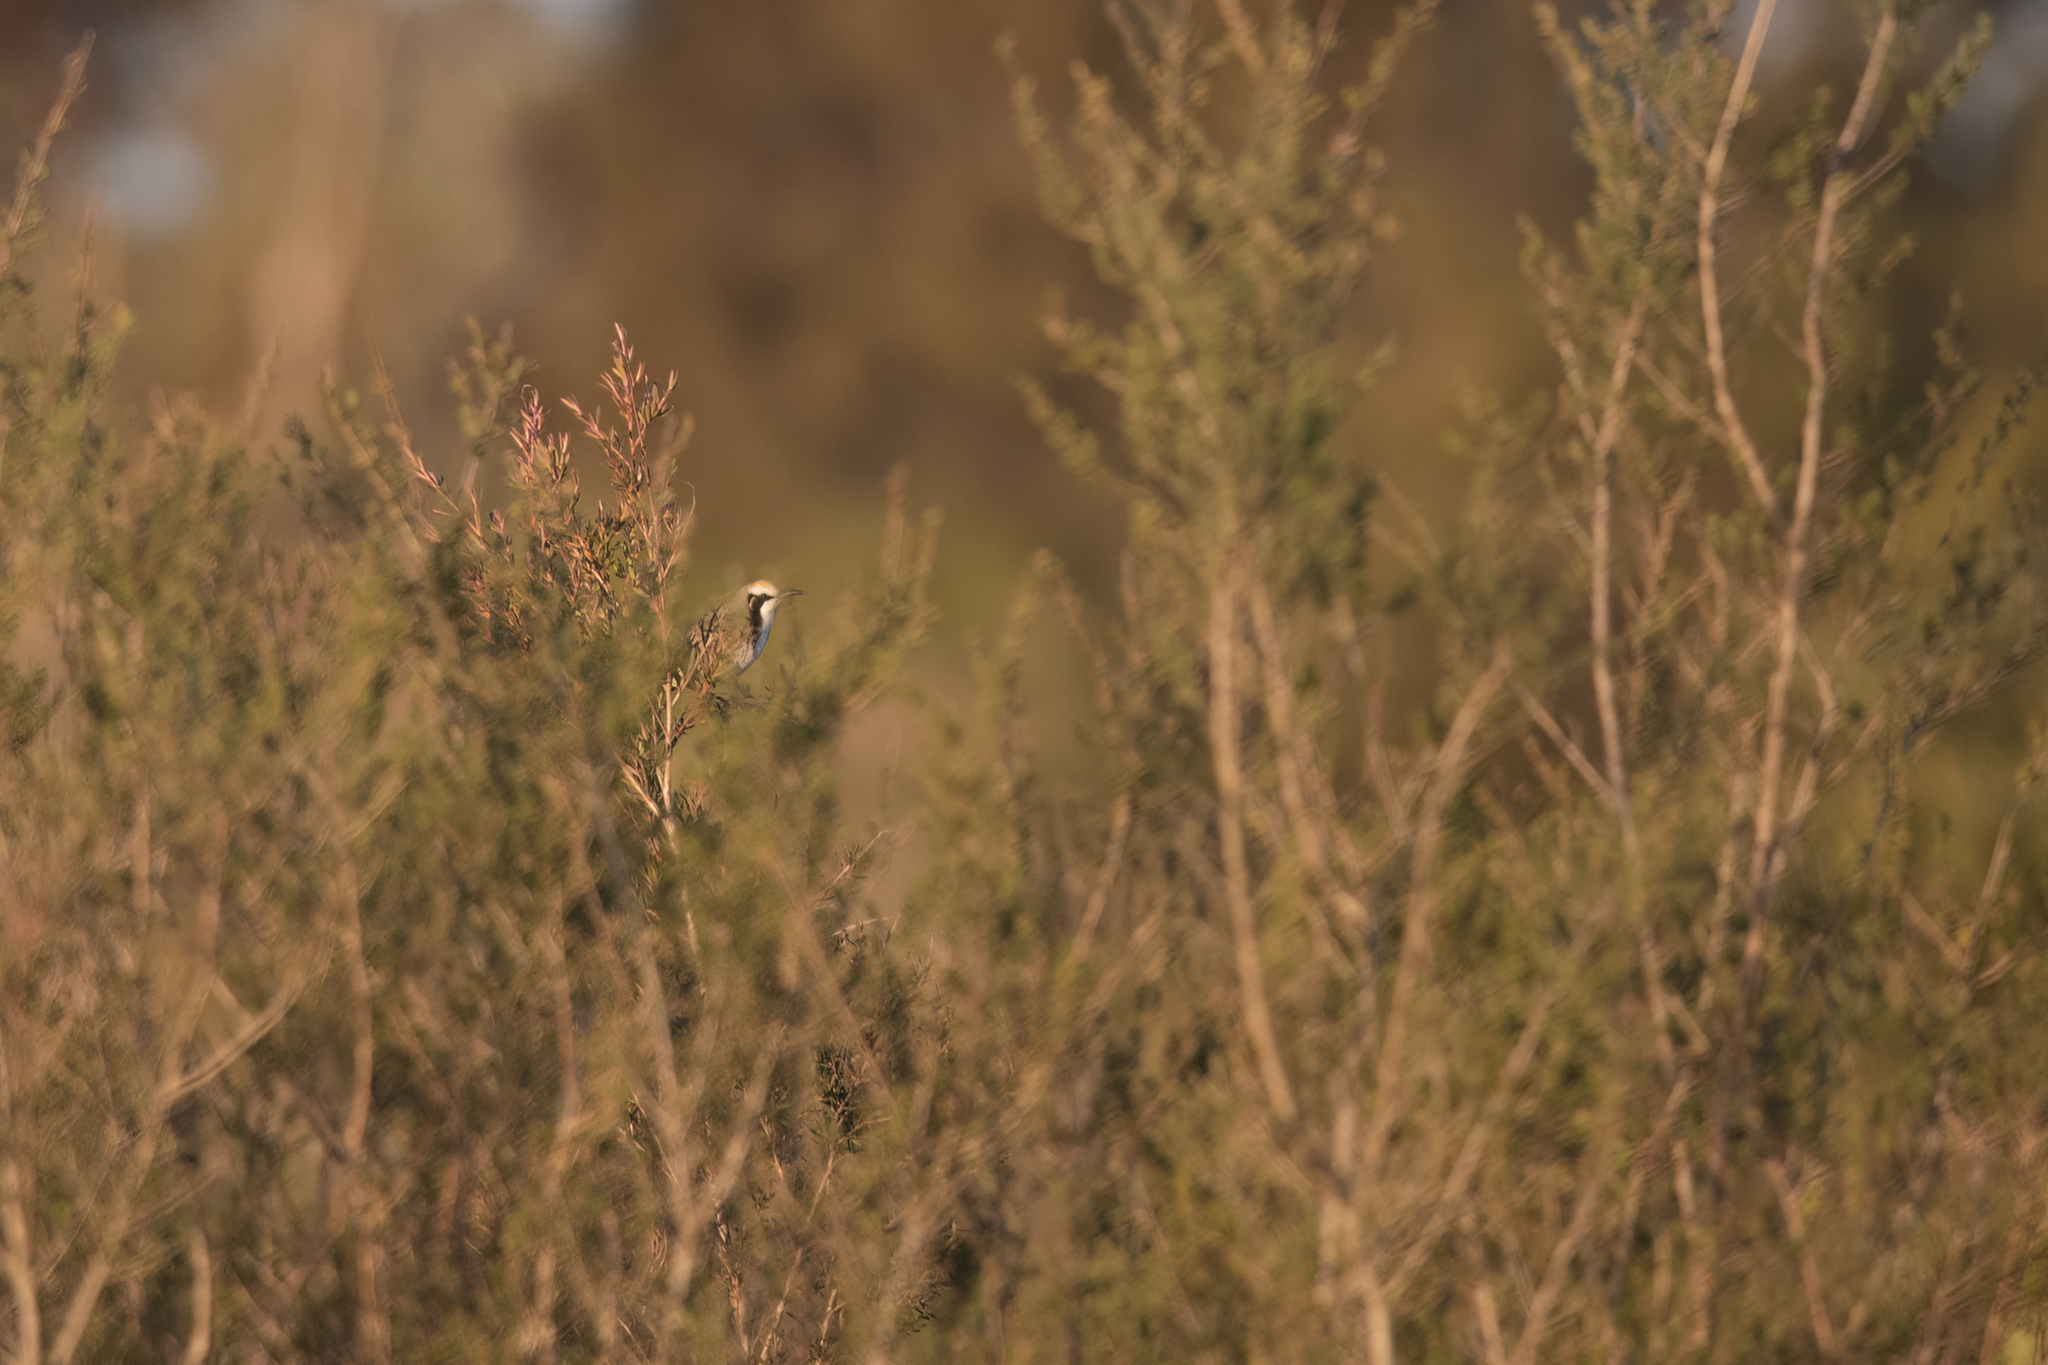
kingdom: Animalia
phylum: Chordata
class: Aves
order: Passeriformes
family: Meliphagidae
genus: Gliciphila
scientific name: Gliciphila melanops
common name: Tawny-crowned honeyeater
